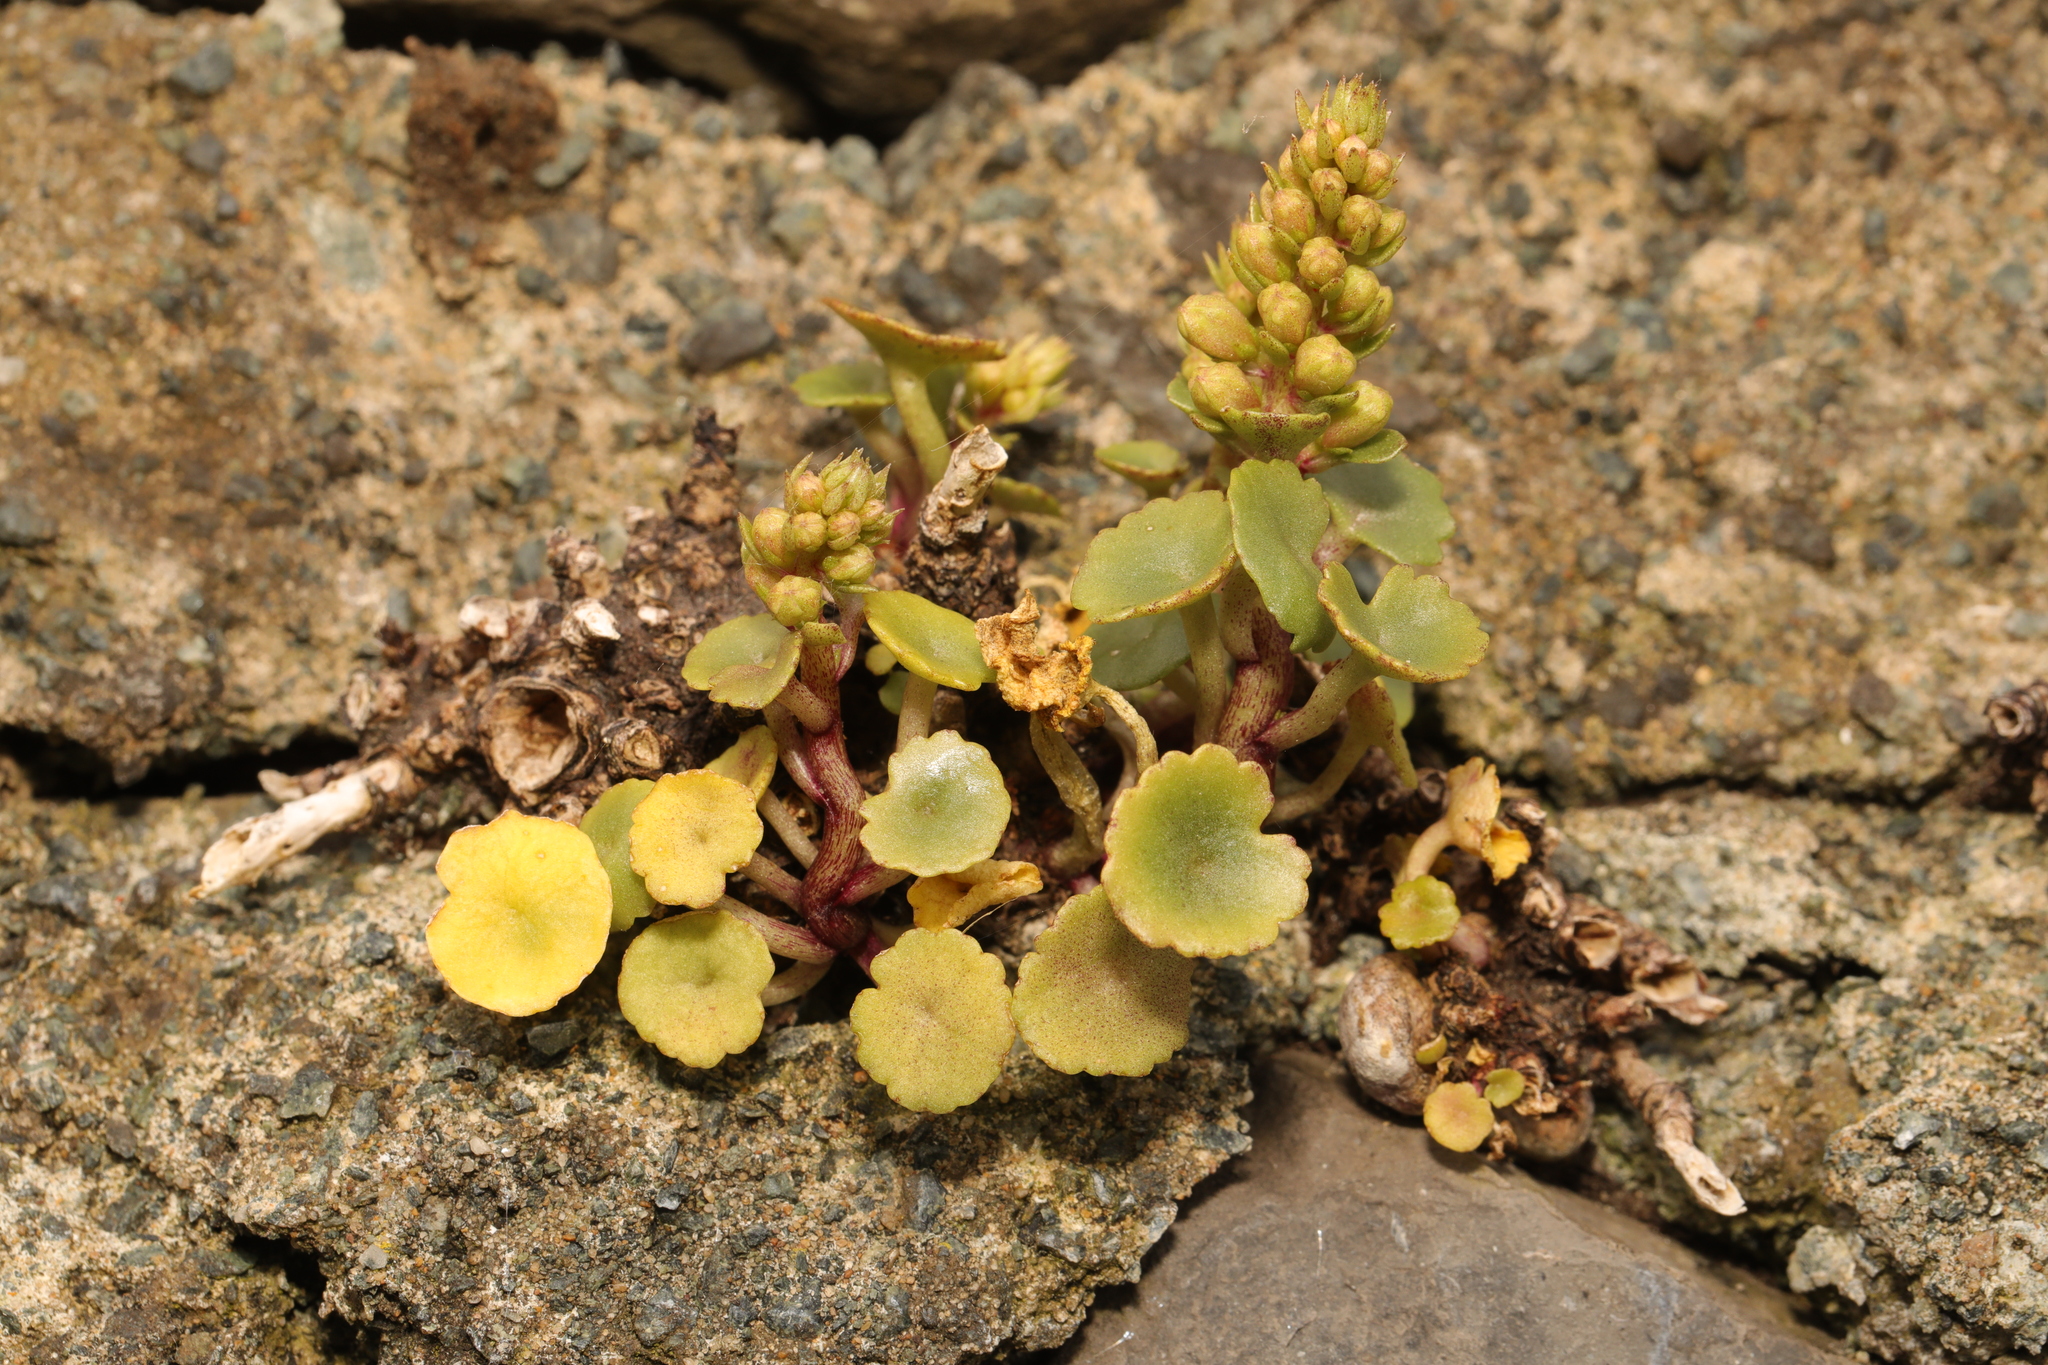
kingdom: Plantae
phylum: Tracheophyta
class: Magnoliopsida
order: Saxifragales
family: Crassulaceae
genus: Umbilicus
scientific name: Umbilicus rupestris
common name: Navelwort
